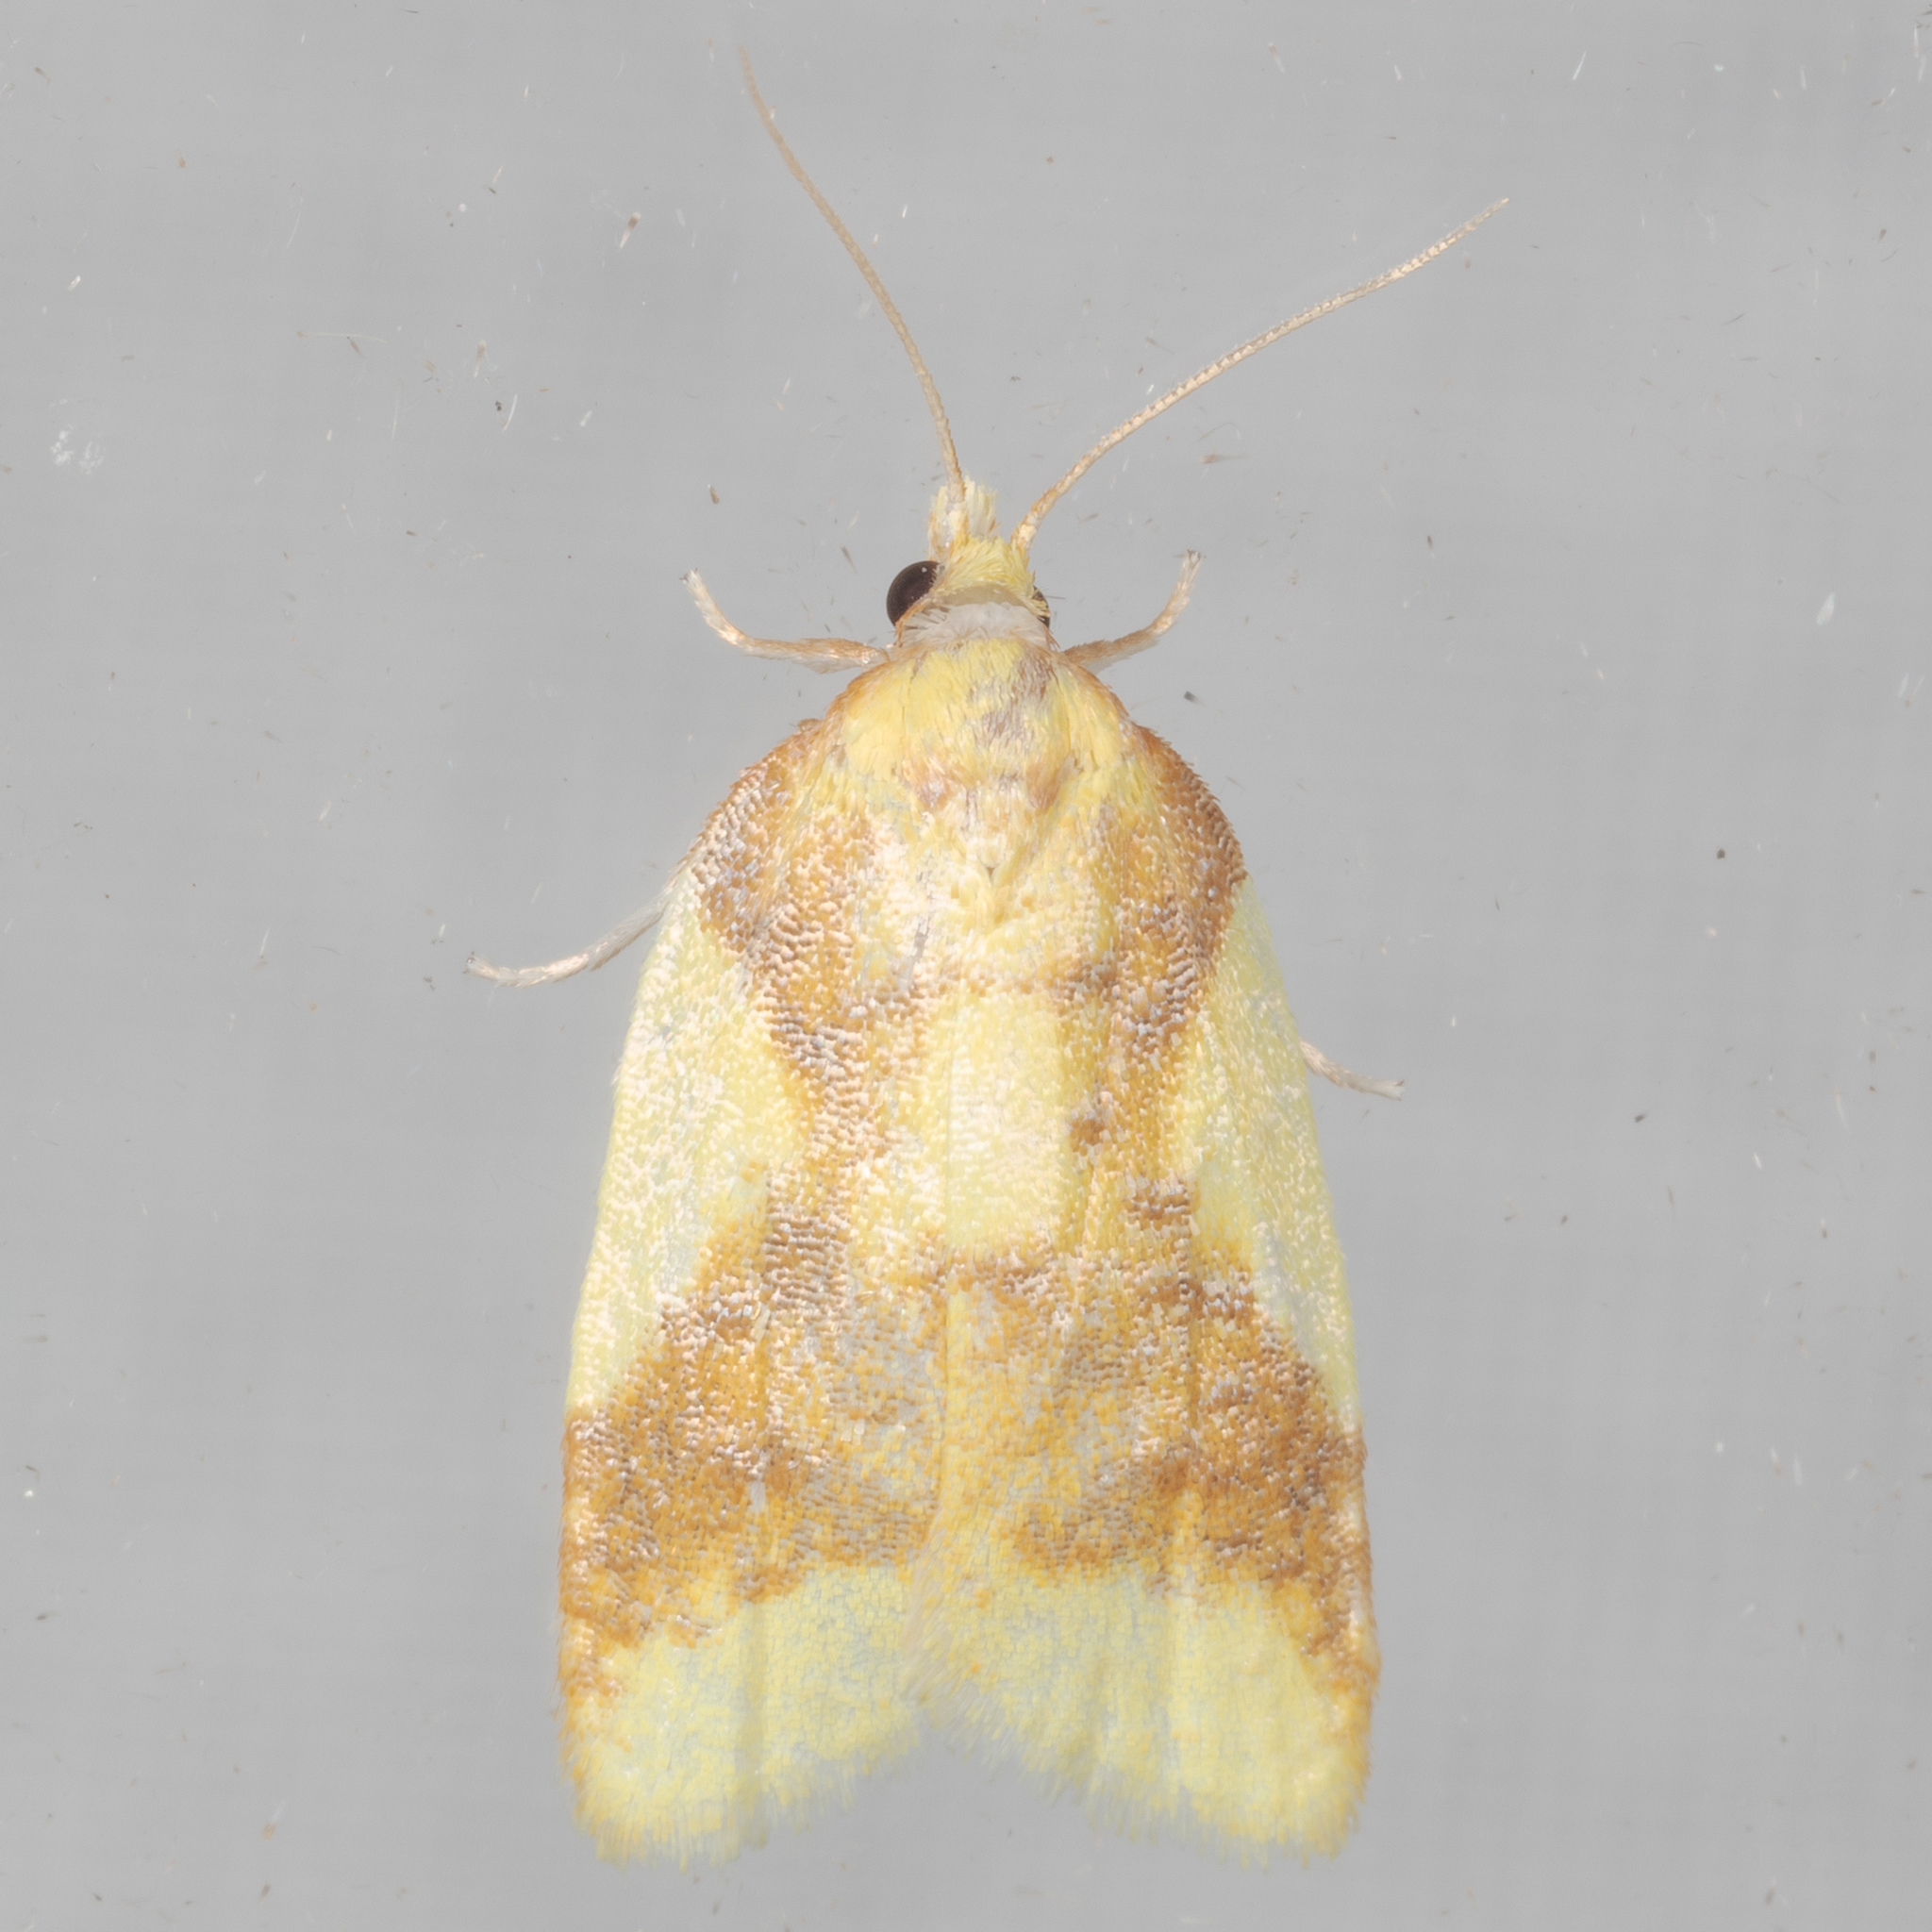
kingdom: Animalia
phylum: Arthropoda
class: Insecta
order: Lepidoptera
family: Tortricidae
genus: Sparganothis
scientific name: Sparganothis pulcherrimana
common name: Beautiful sparganothis
